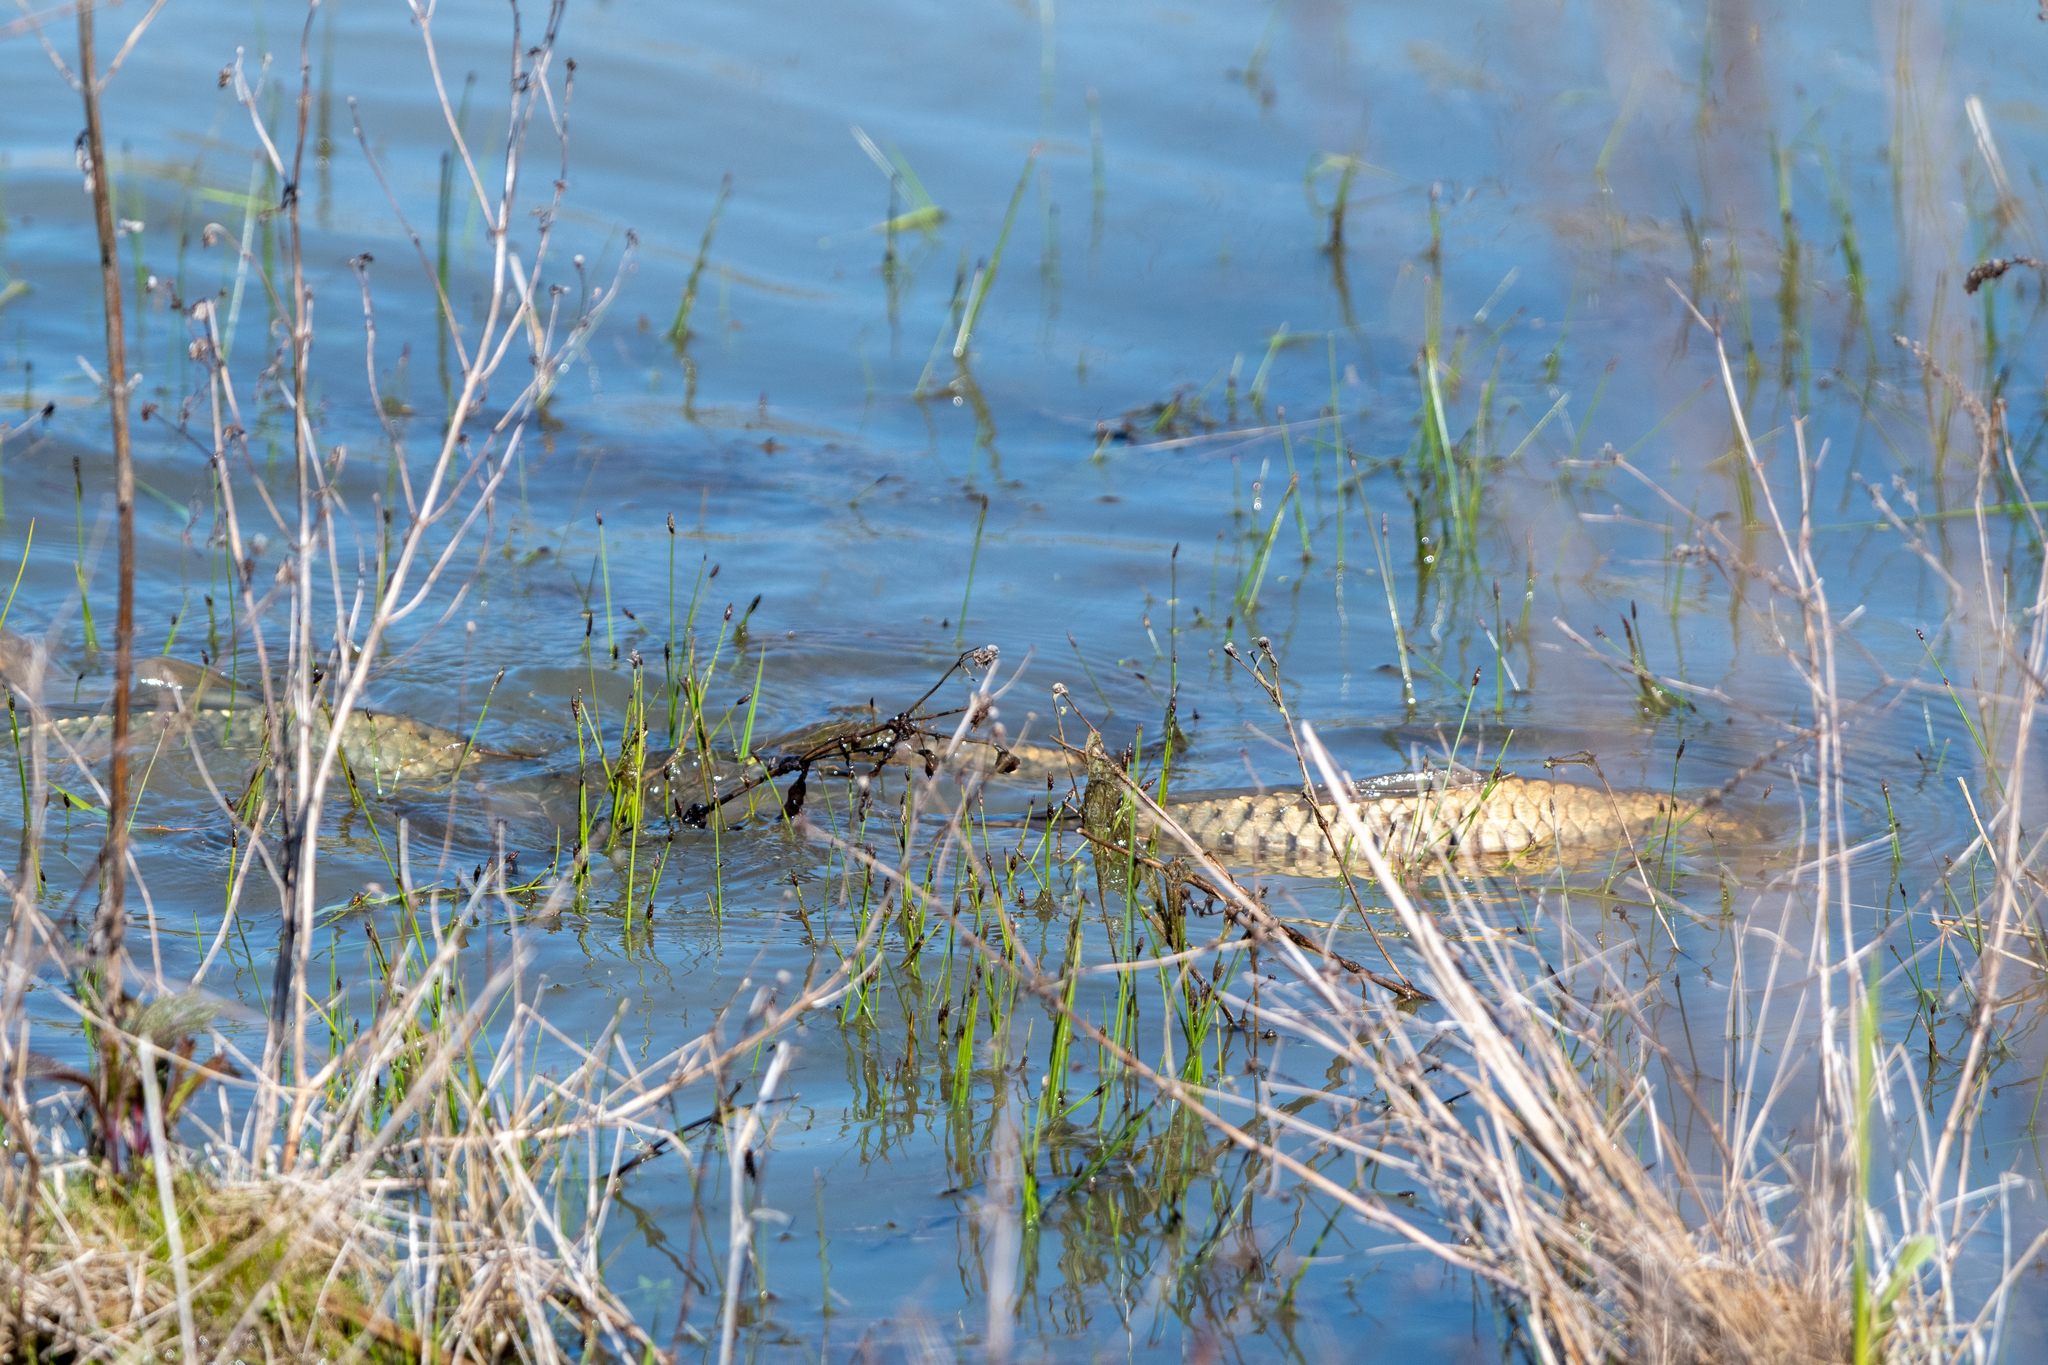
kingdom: Animalia
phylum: Chordata
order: Cypriniformes
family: Cyprinidae
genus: Cyprinus
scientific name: Cyprinus carpio
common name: Common carp
